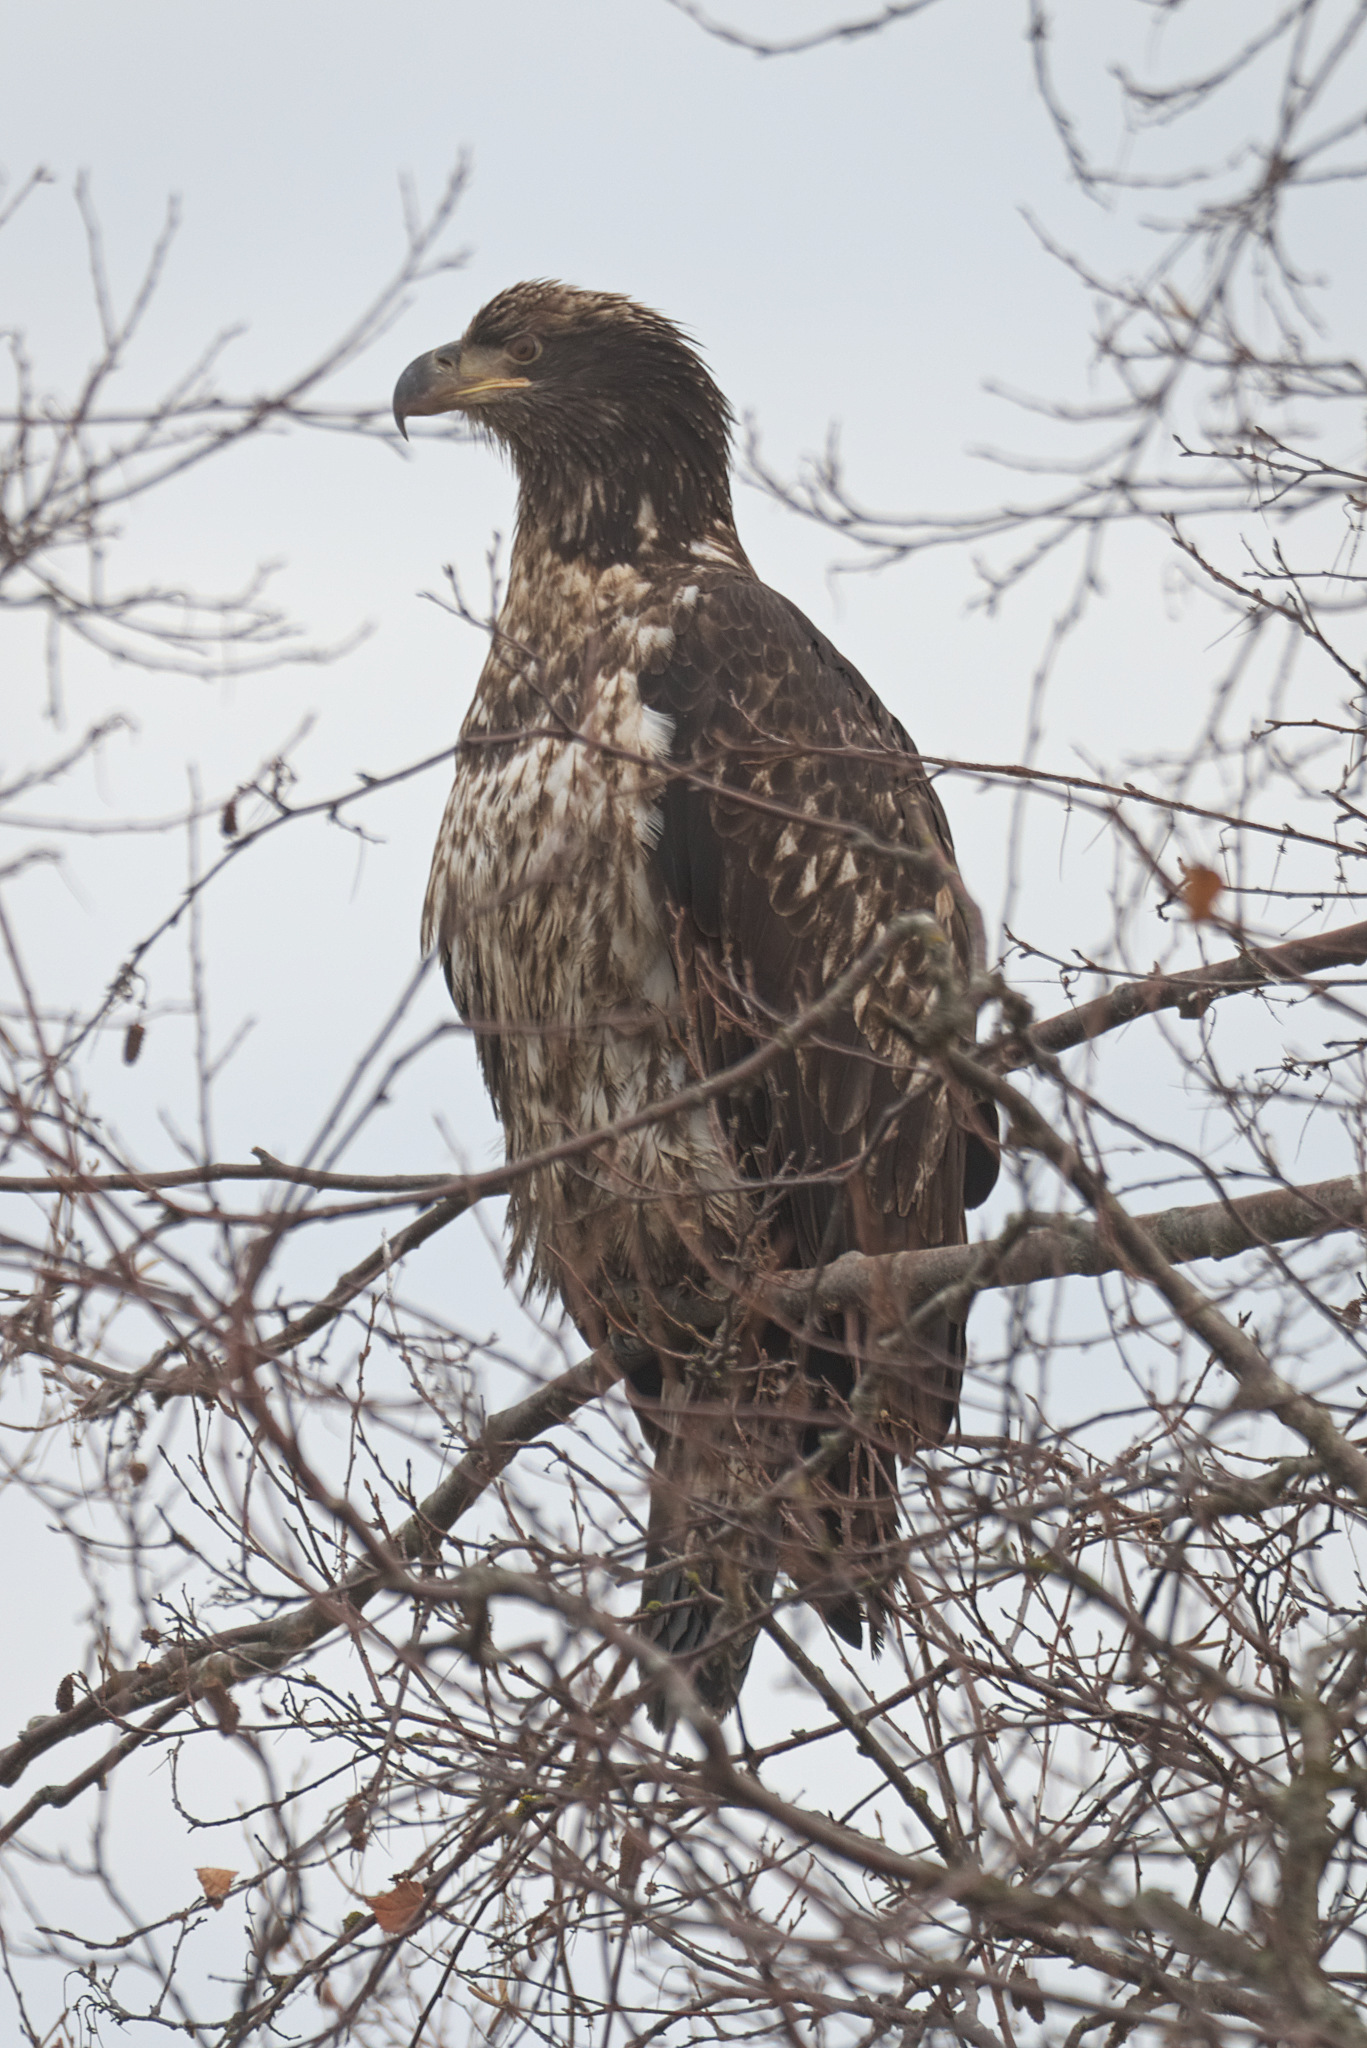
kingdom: Animalia
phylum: Chordata
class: Aves
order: Accipitriformes
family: Accipitridae
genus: Haliaeetus
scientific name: Haliaeetus leucocephalus
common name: Bald eagle
